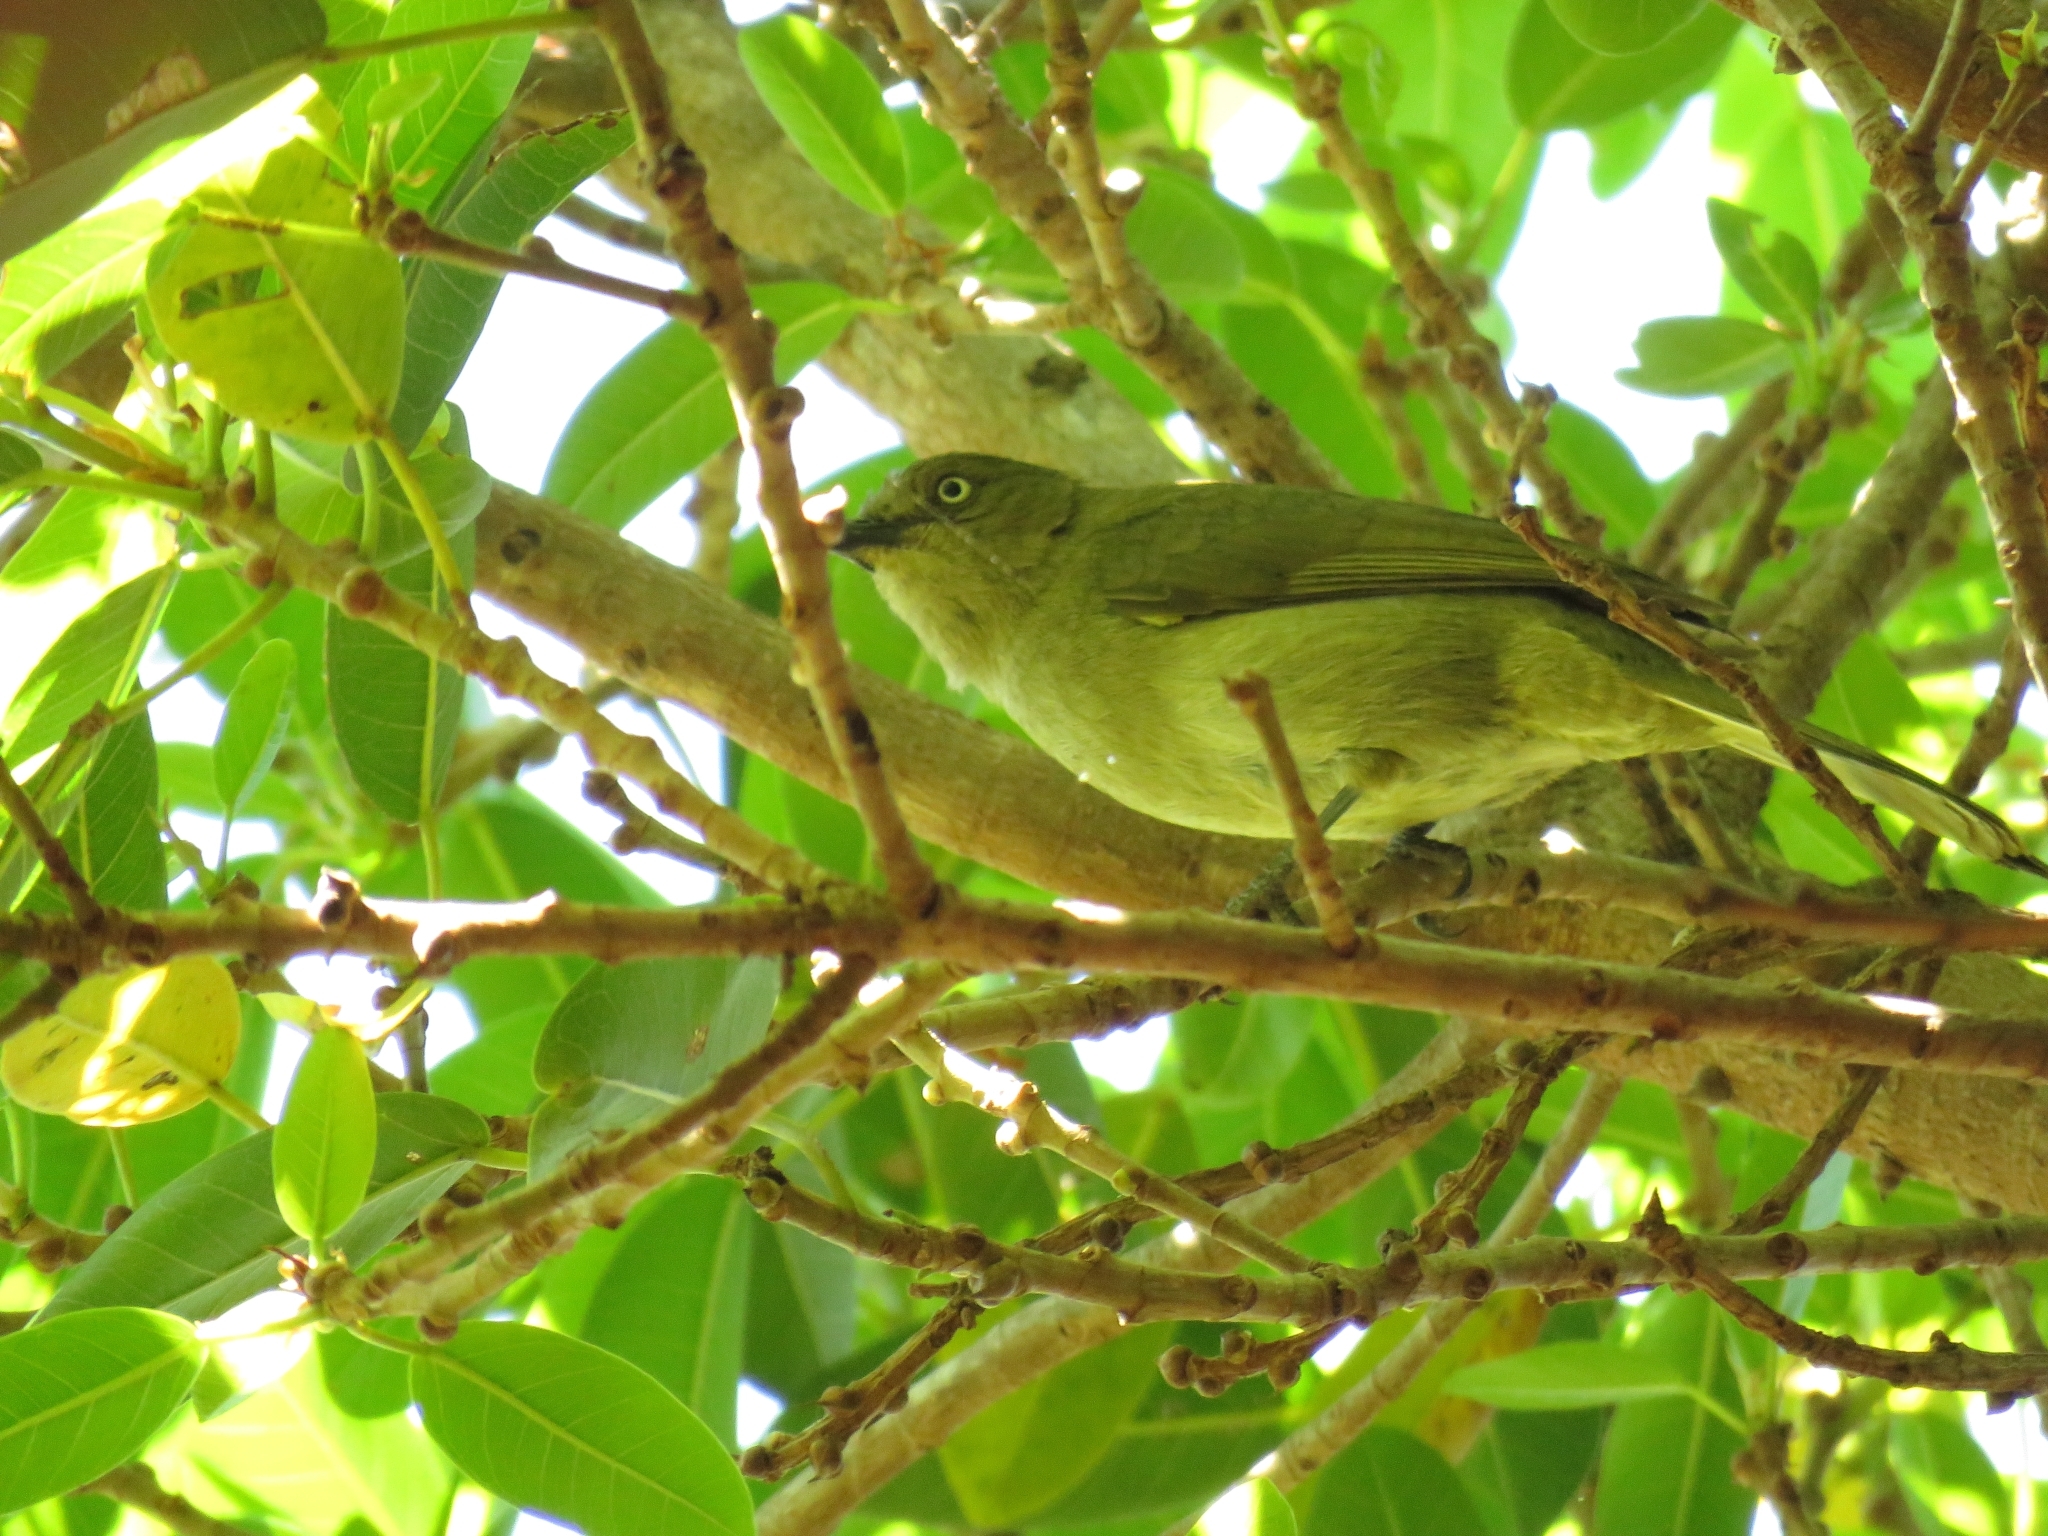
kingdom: Animalia
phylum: Chordata
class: Aves
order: Passeriformes
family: Pycnonotidae
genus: Andropadus
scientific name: Andropadus importunus
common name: Sombre greenbul
